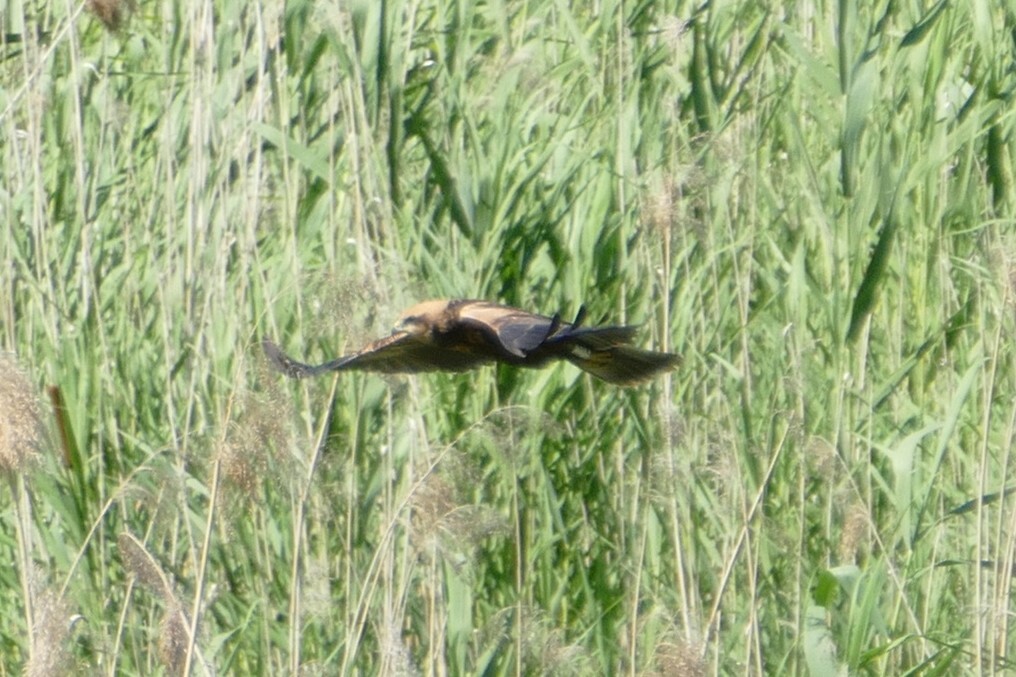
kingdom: Animalia
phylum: Chordata
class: Aves
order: Accipitriformes
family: Accipitridae
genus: Circus
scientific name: Circus aeruginosus
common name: Western marsh harrier
